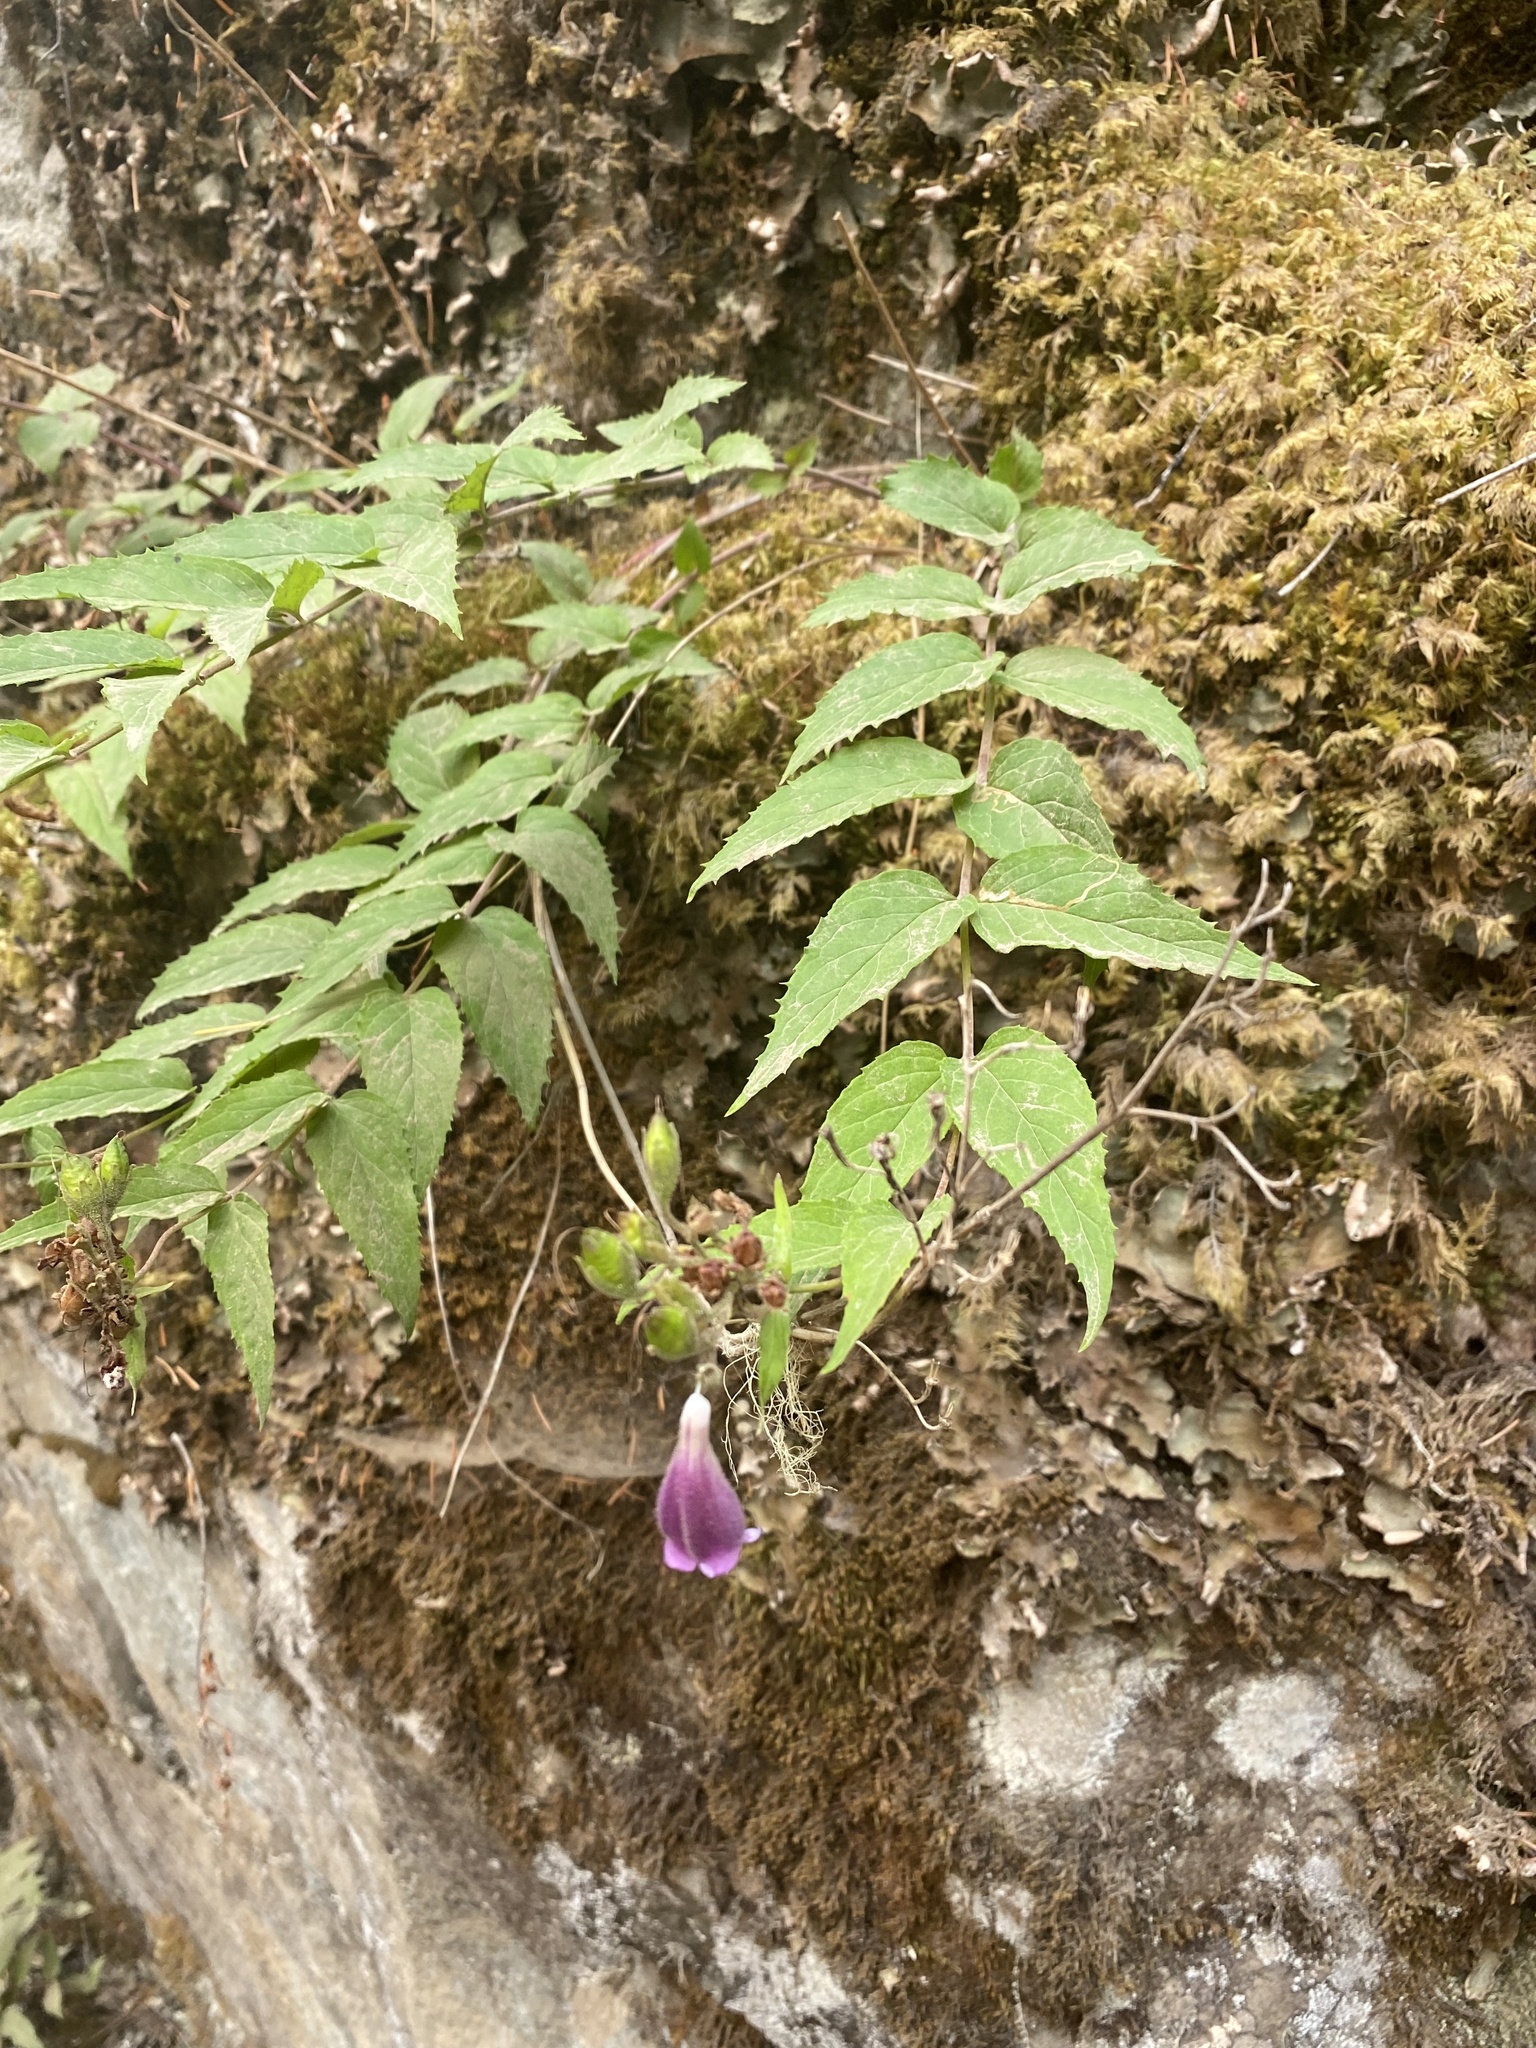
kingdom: Plantae
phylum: Tracheophyta
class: Magnoliopsida
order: Lamiales
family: Plantaginaceae
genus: Nothochelone
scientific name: Nothochelone nemorosa
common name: Woodland beardtongue
